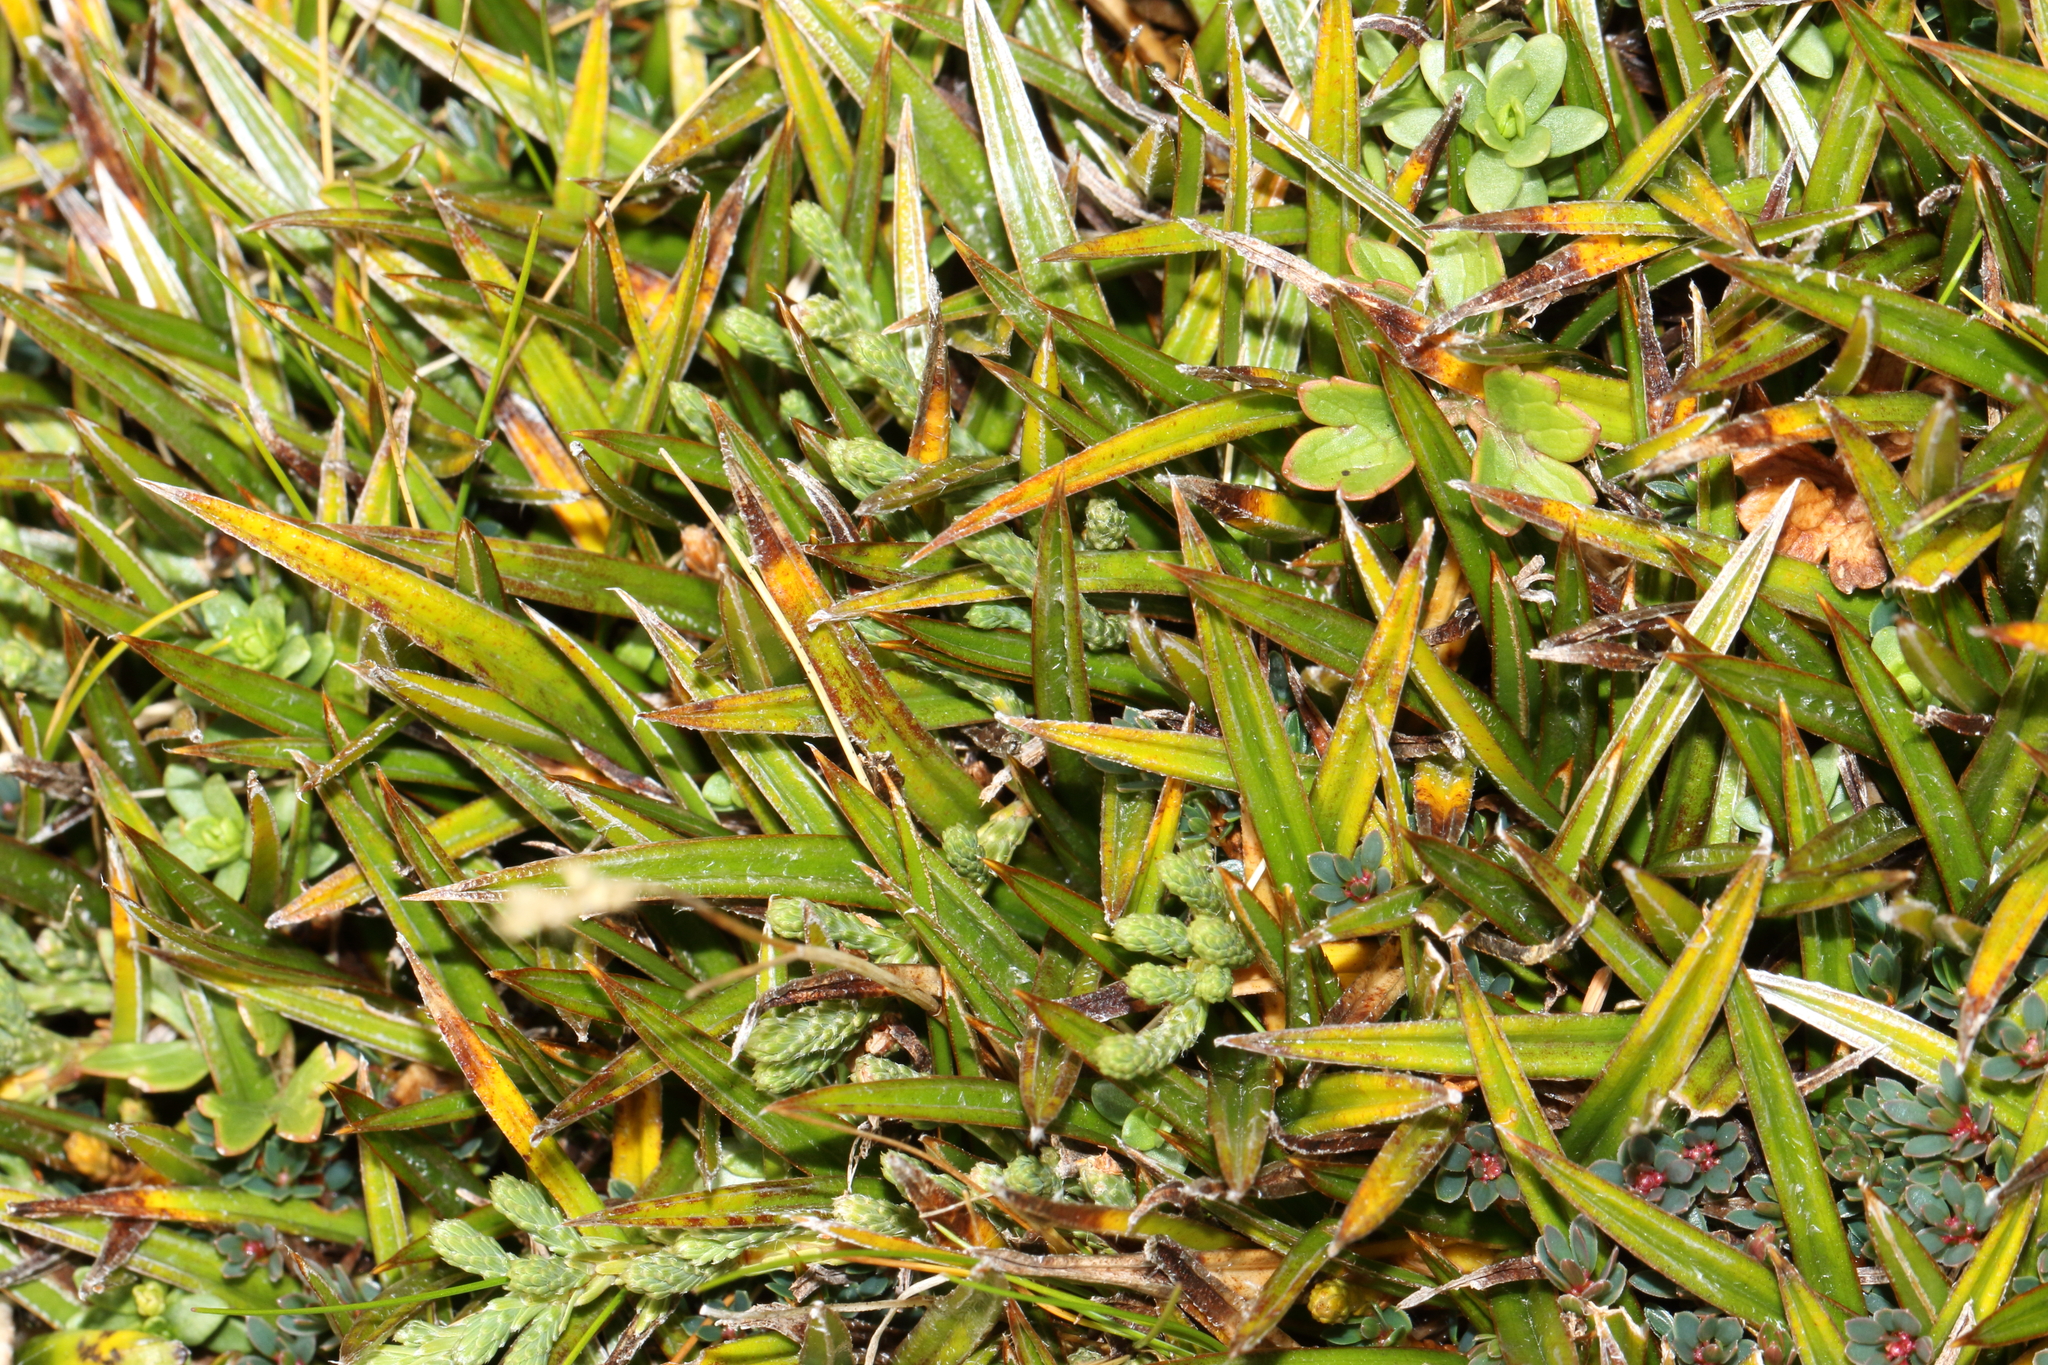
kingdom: Plantae
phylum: Tracheophyta
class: Liliopsida
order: Asparagales
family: Asteliaceae
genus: Astelia
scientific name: Astelia linearis
